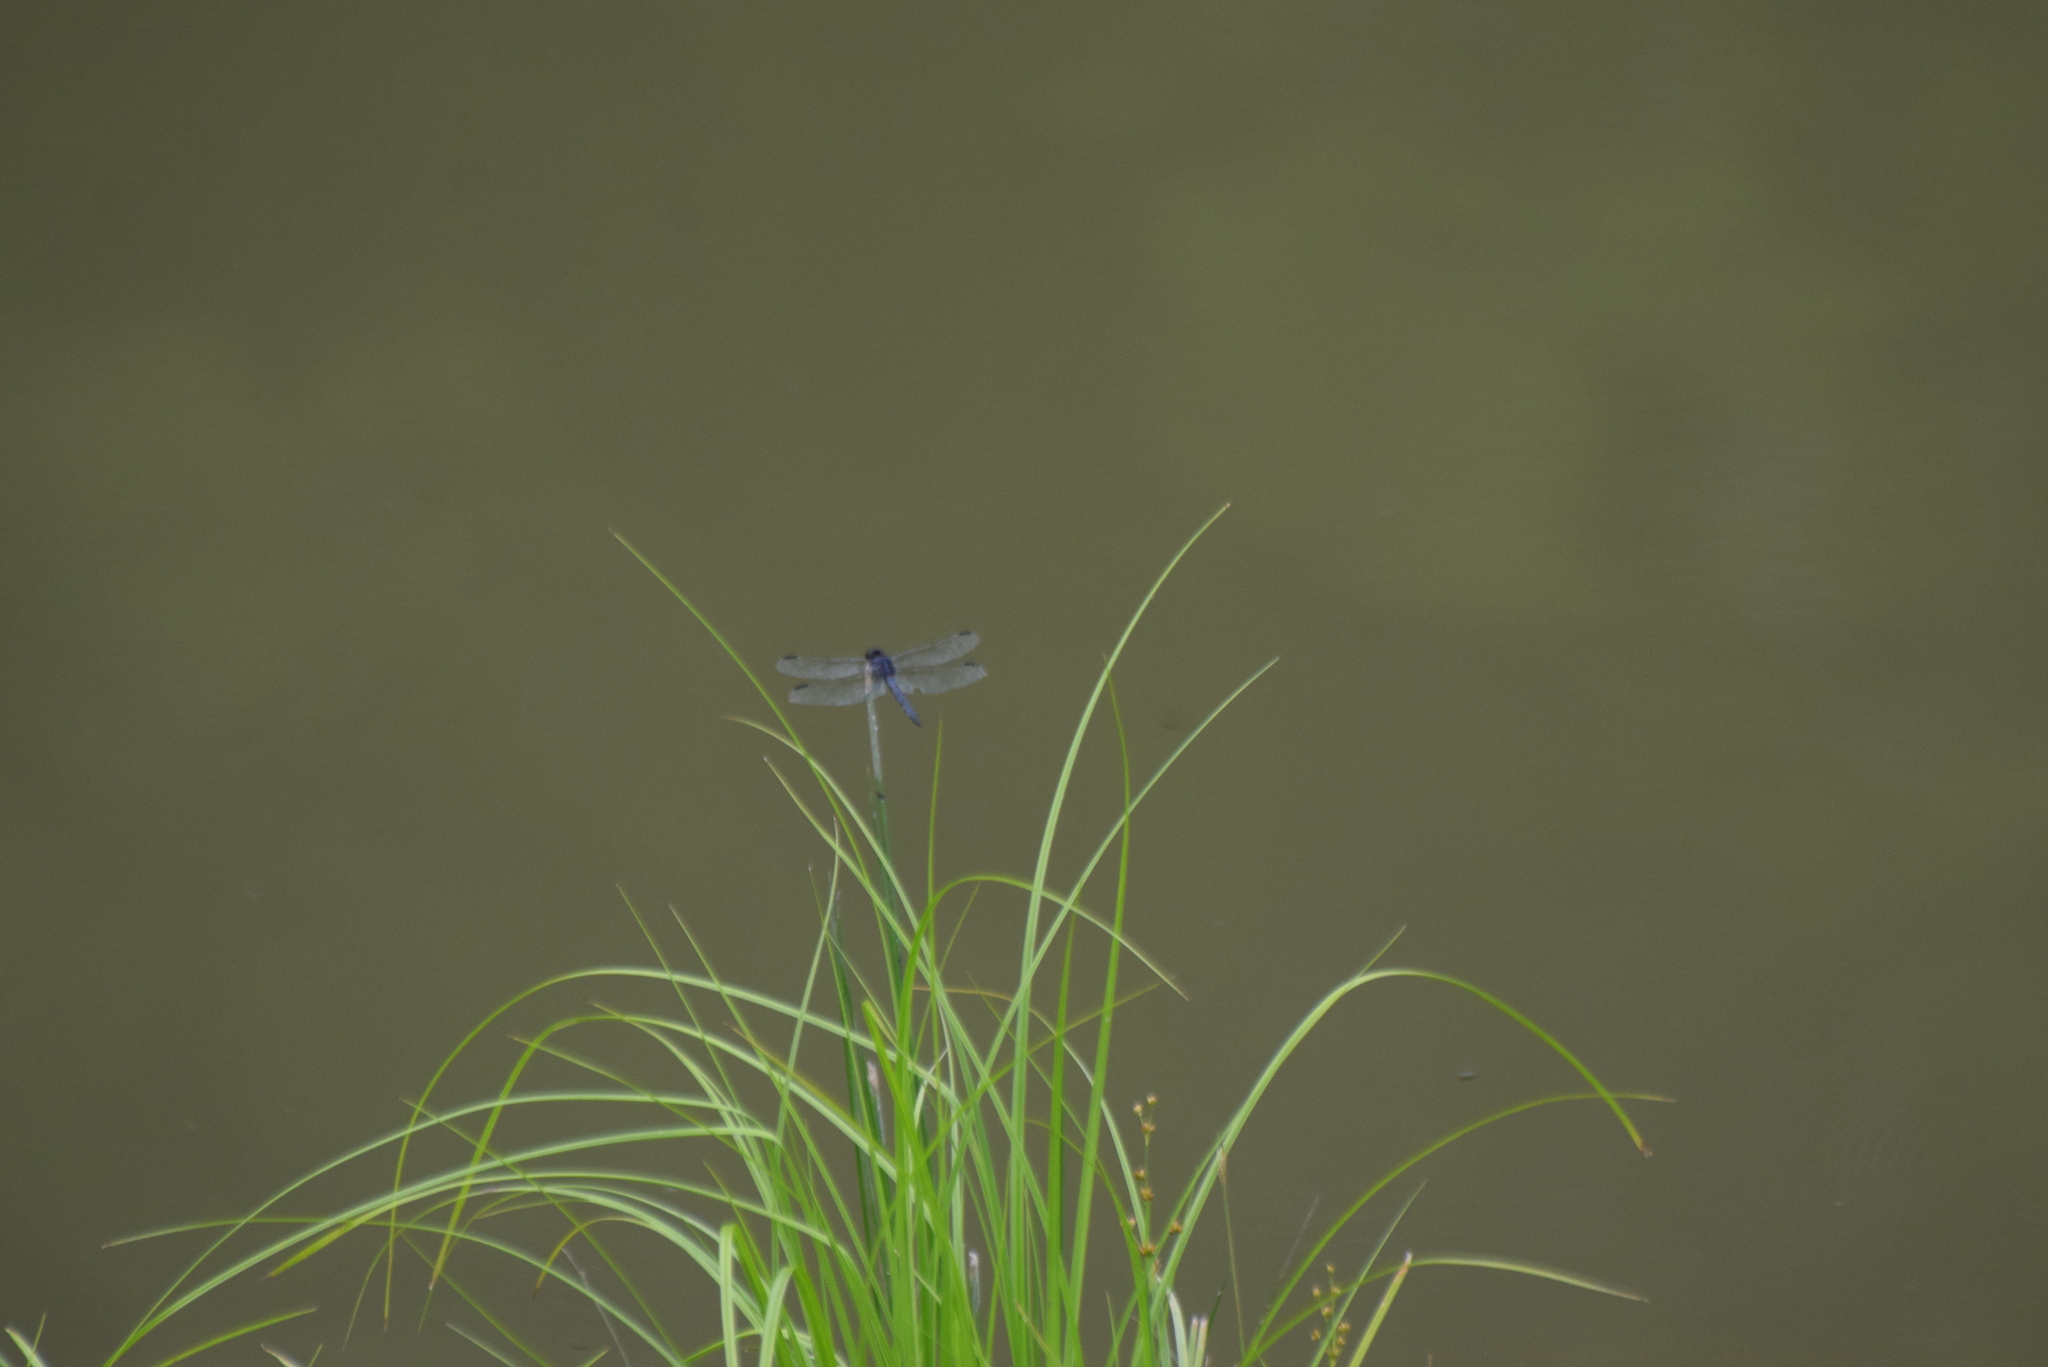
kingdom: Animalia
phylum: Arthropoda
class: Insecta
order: Odonata
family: Libellulidae
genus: Libellula
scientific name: Libellula incesta
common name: Slaty skimmer
